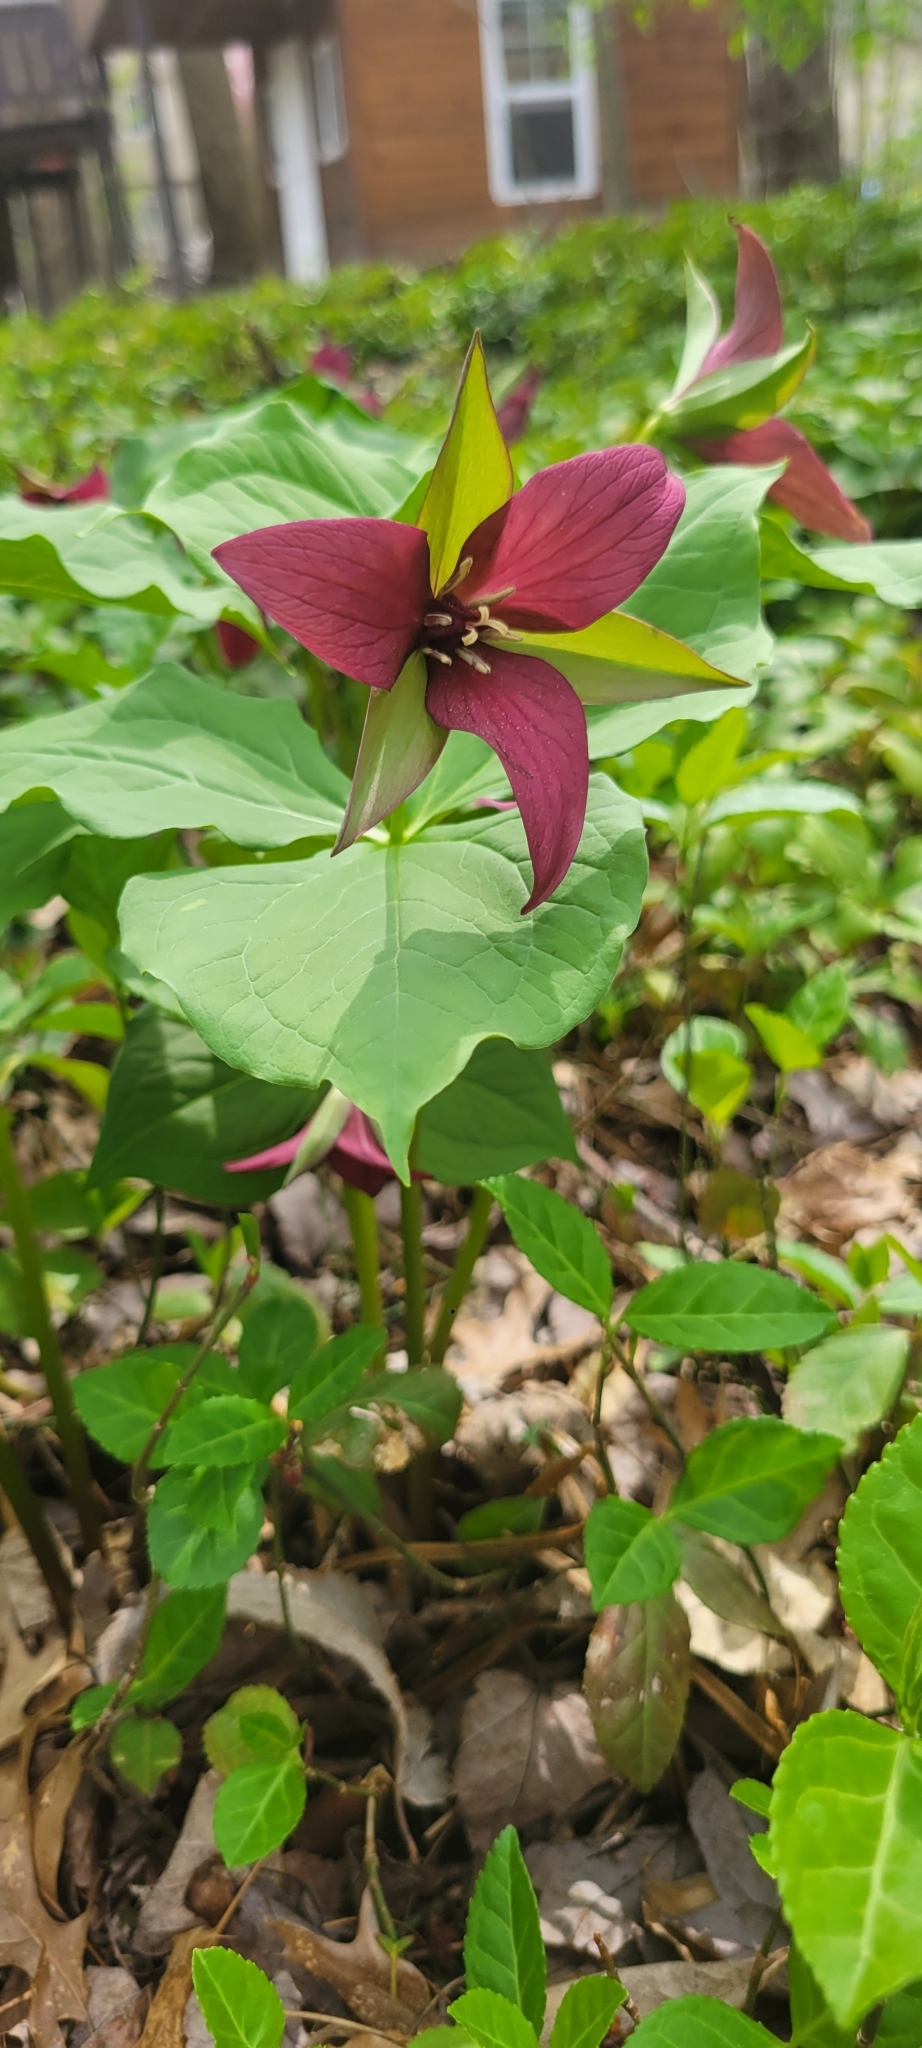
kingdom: Plantae
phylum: Tracheophyta
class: Liliopsida
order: Liliales
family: Melanthiaceae
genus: Trillium
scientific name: Trillium erectum
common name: Purple trillium
